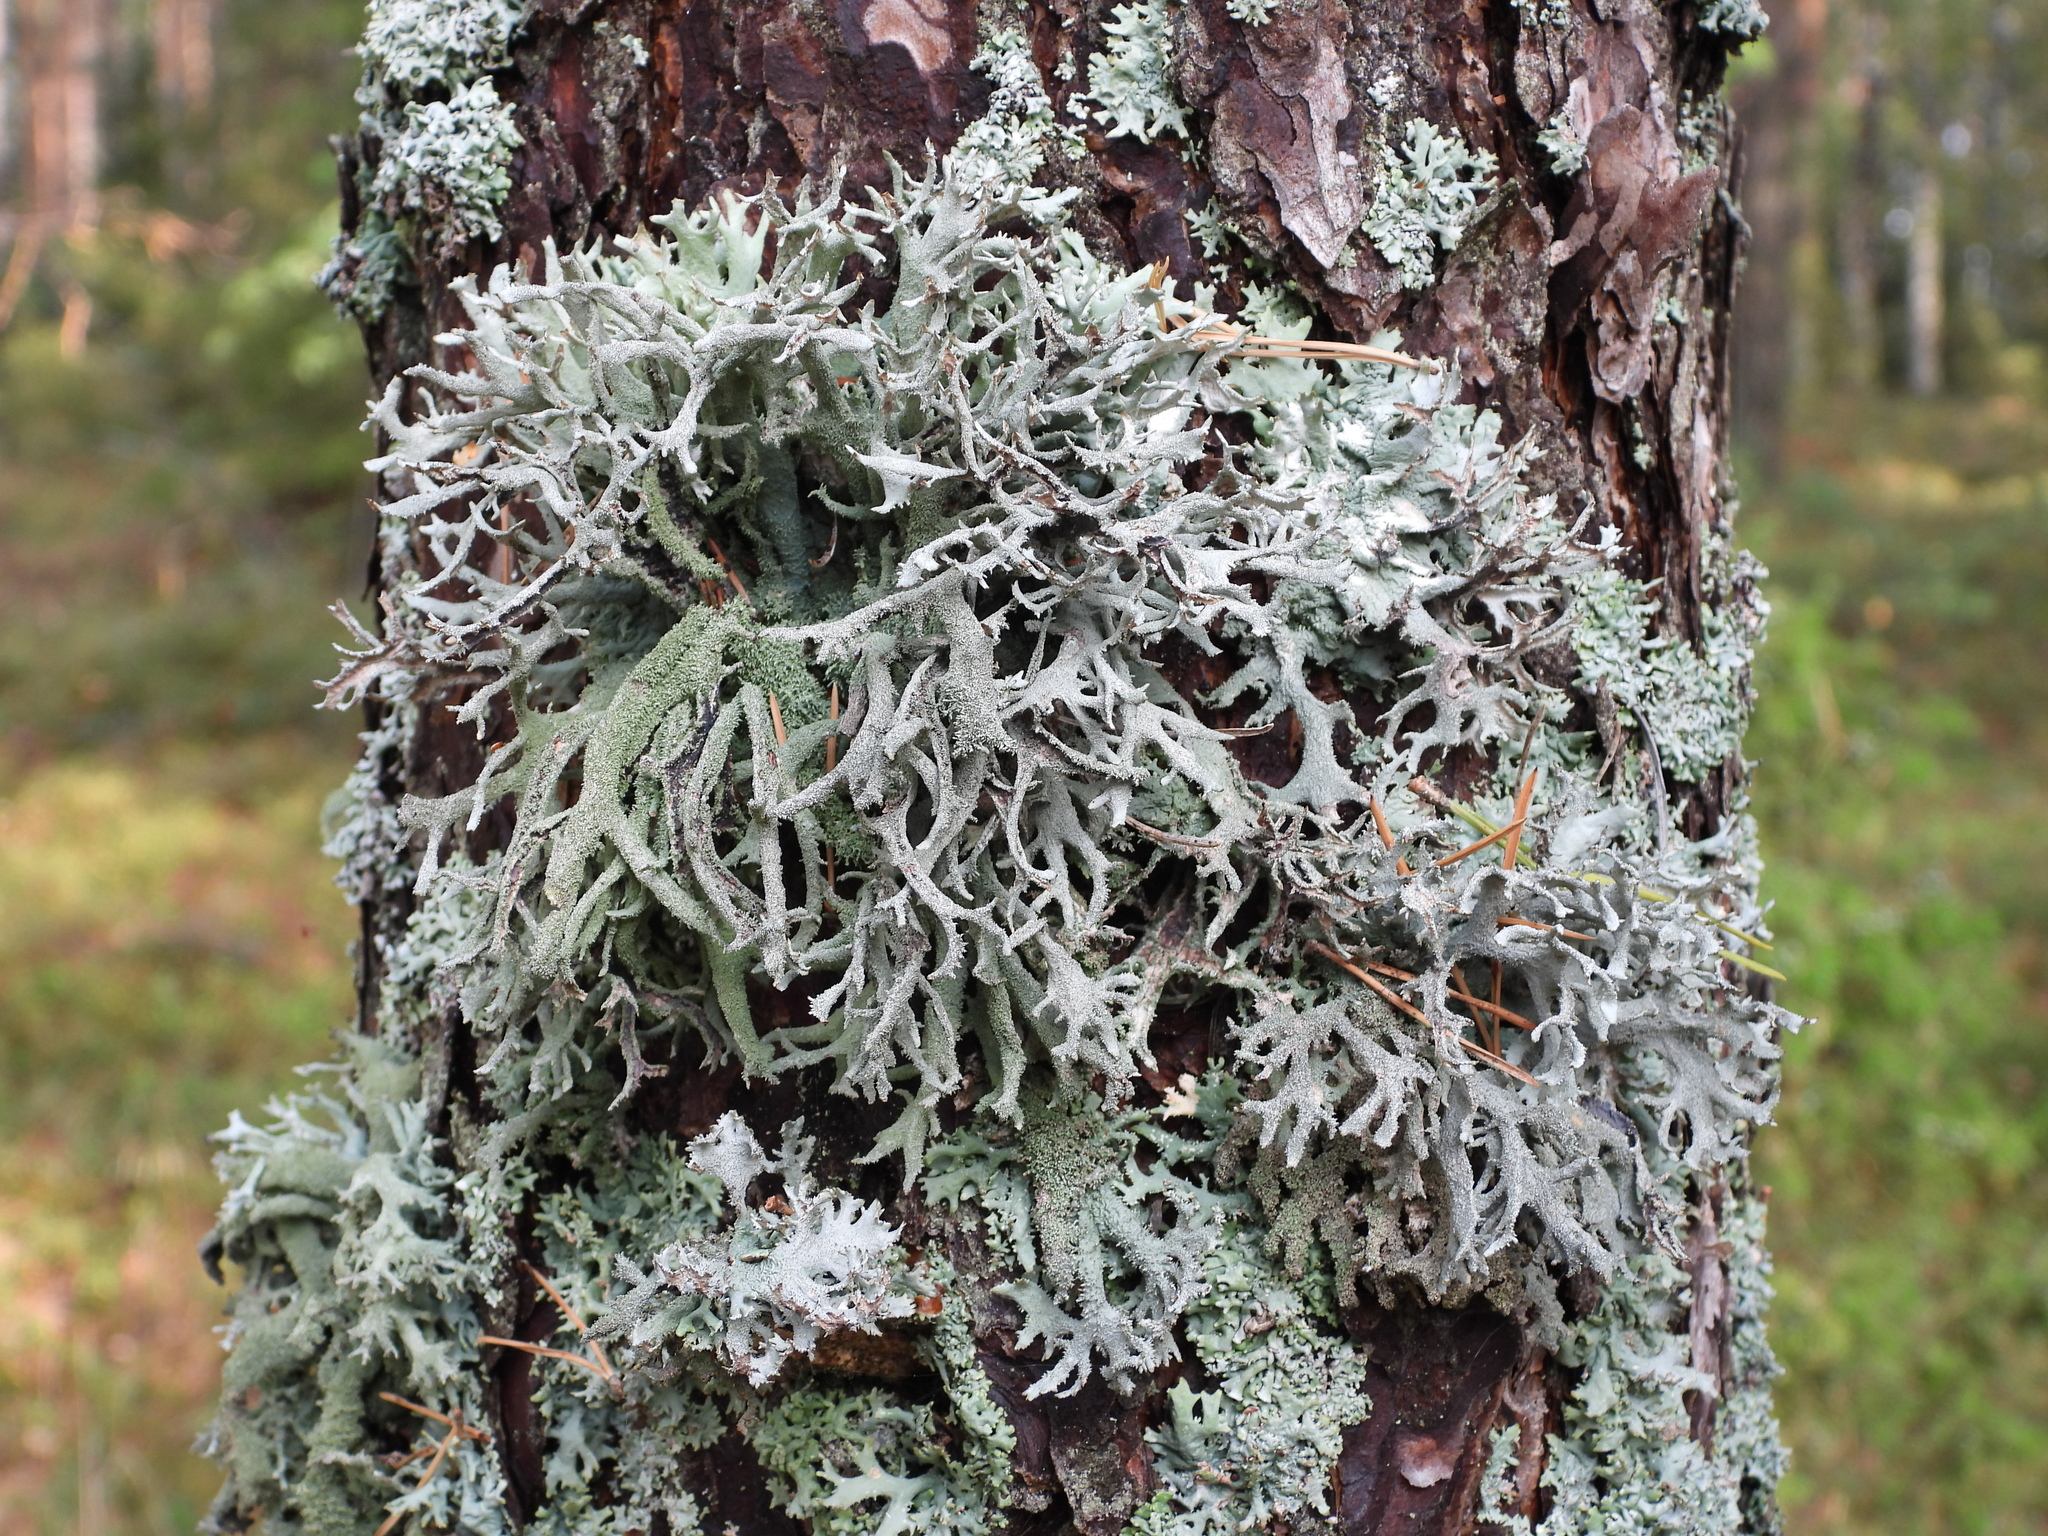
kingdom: Fungi
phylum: Ascomycota
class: Lecanoromycetes
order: Lecanorales
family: Parmeliaceae
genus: Pseudevernia
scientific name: Pseudevernia furfuracea
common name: Tree moss
